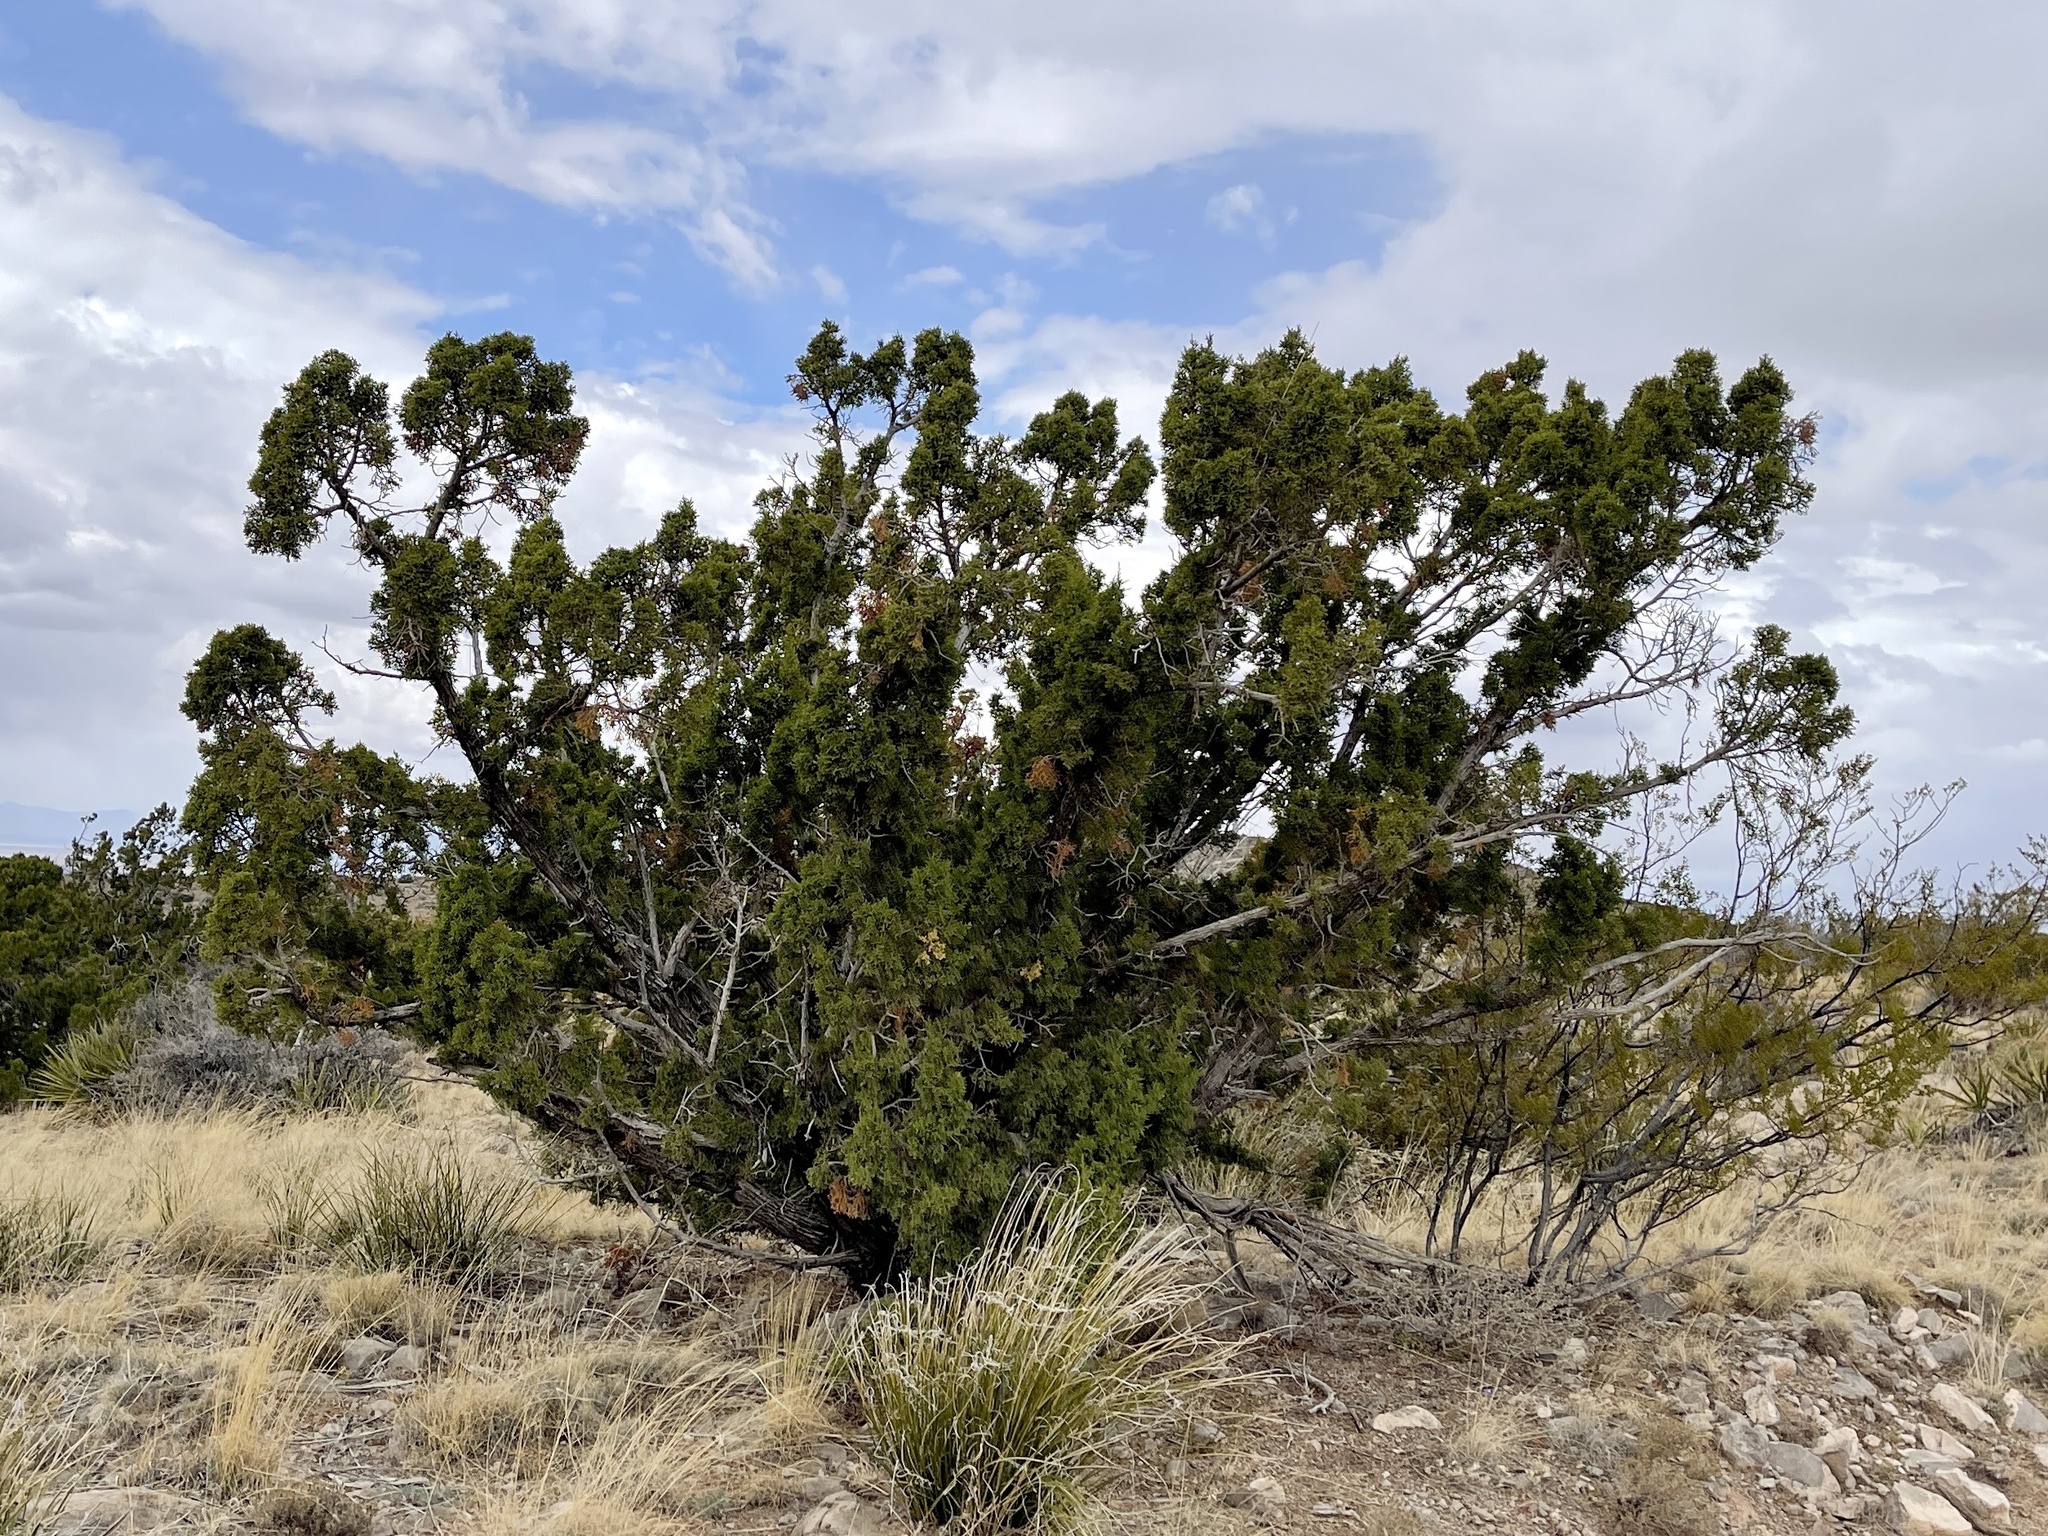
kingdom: Plantae
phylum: Tracheophyta
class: Pinopsida
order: Pinales
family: Cupressaceae
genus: Juniperus
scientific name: Juniperus monosperma
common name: One-seed juniper
